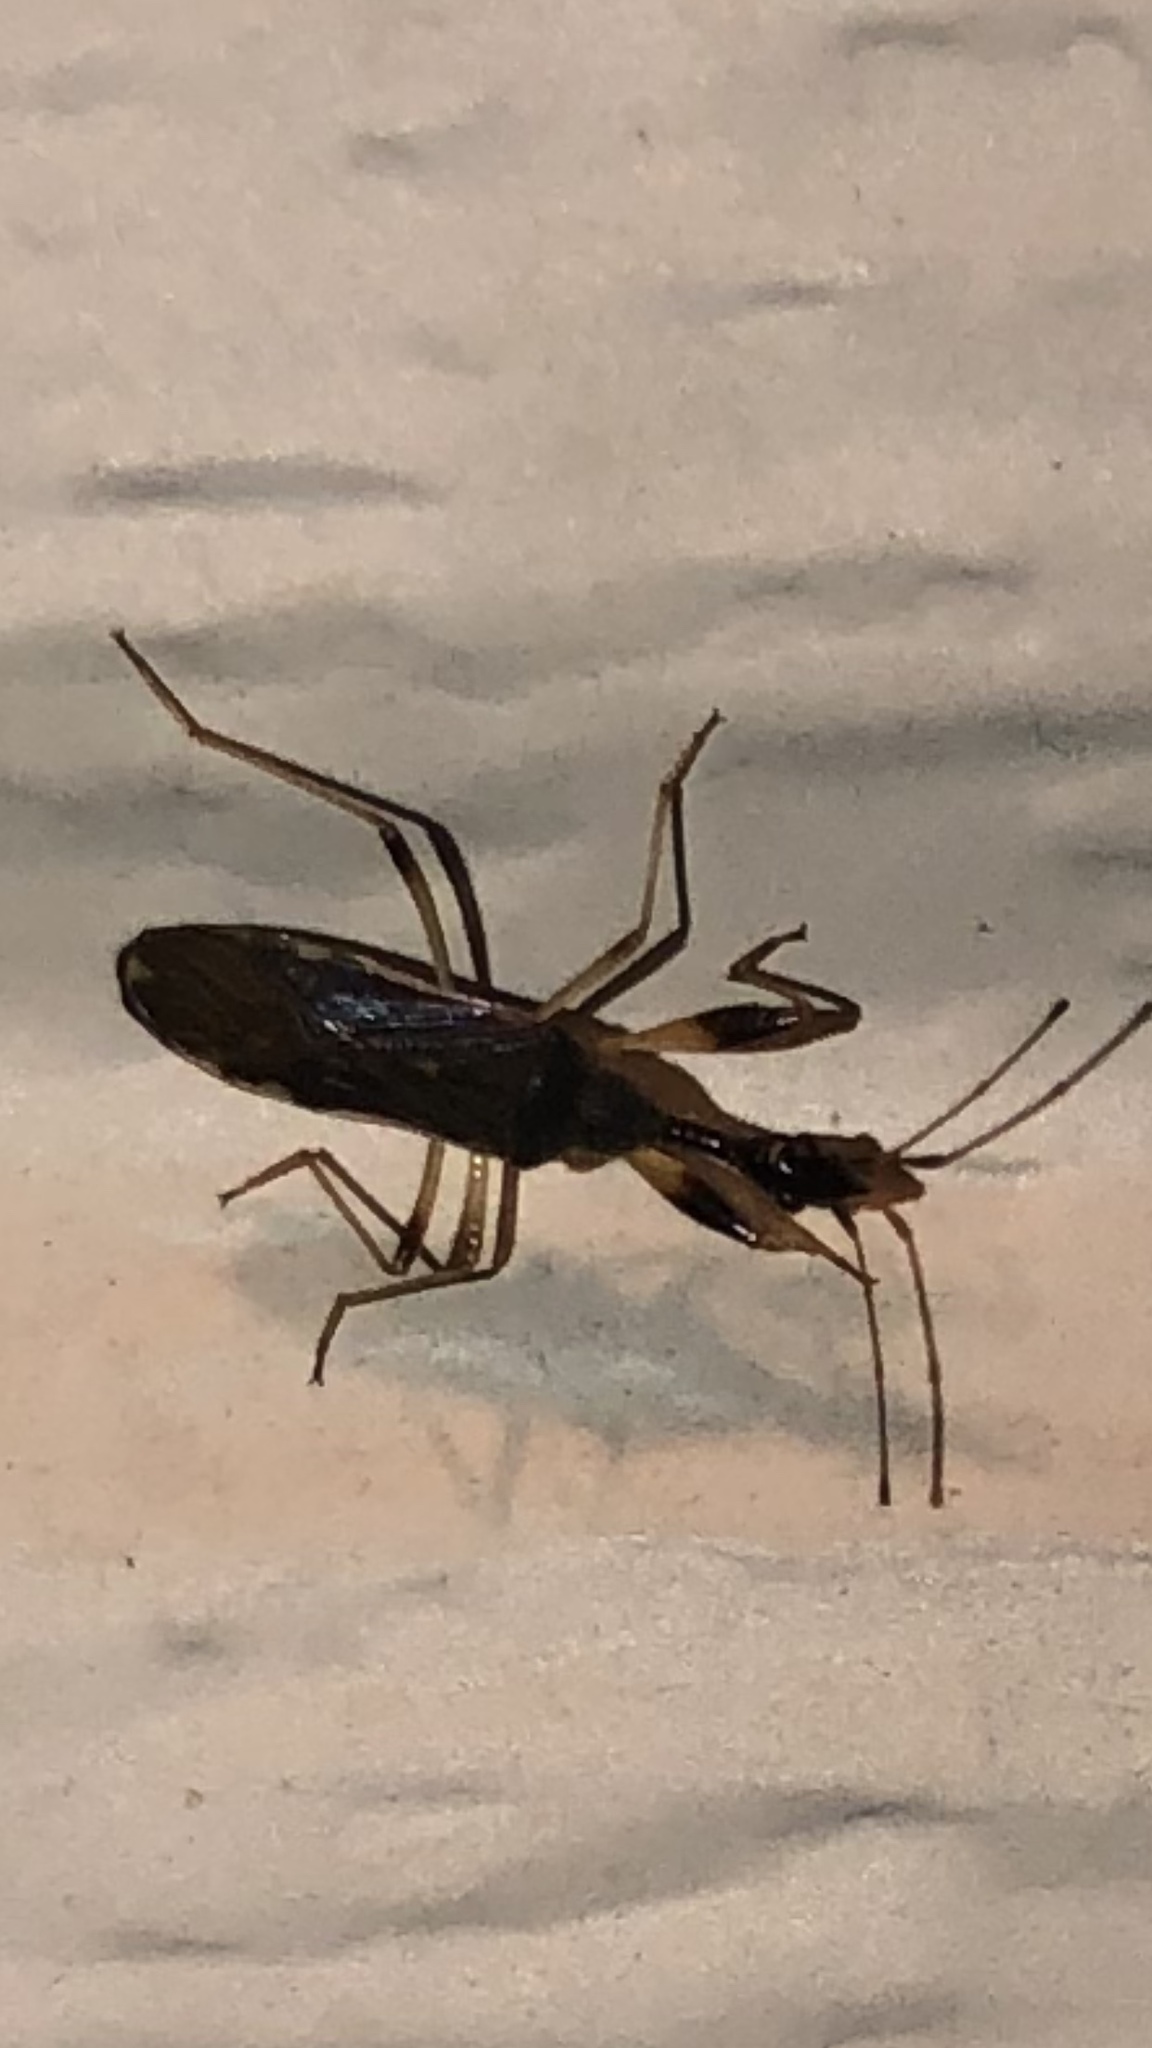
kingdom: Animalia
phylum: Arthropoda
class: Insecta
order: Hemiptera
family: Rhyparochromidae
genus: Myodocha
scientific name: Myodocha serripes
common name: Long-necked seed bug
